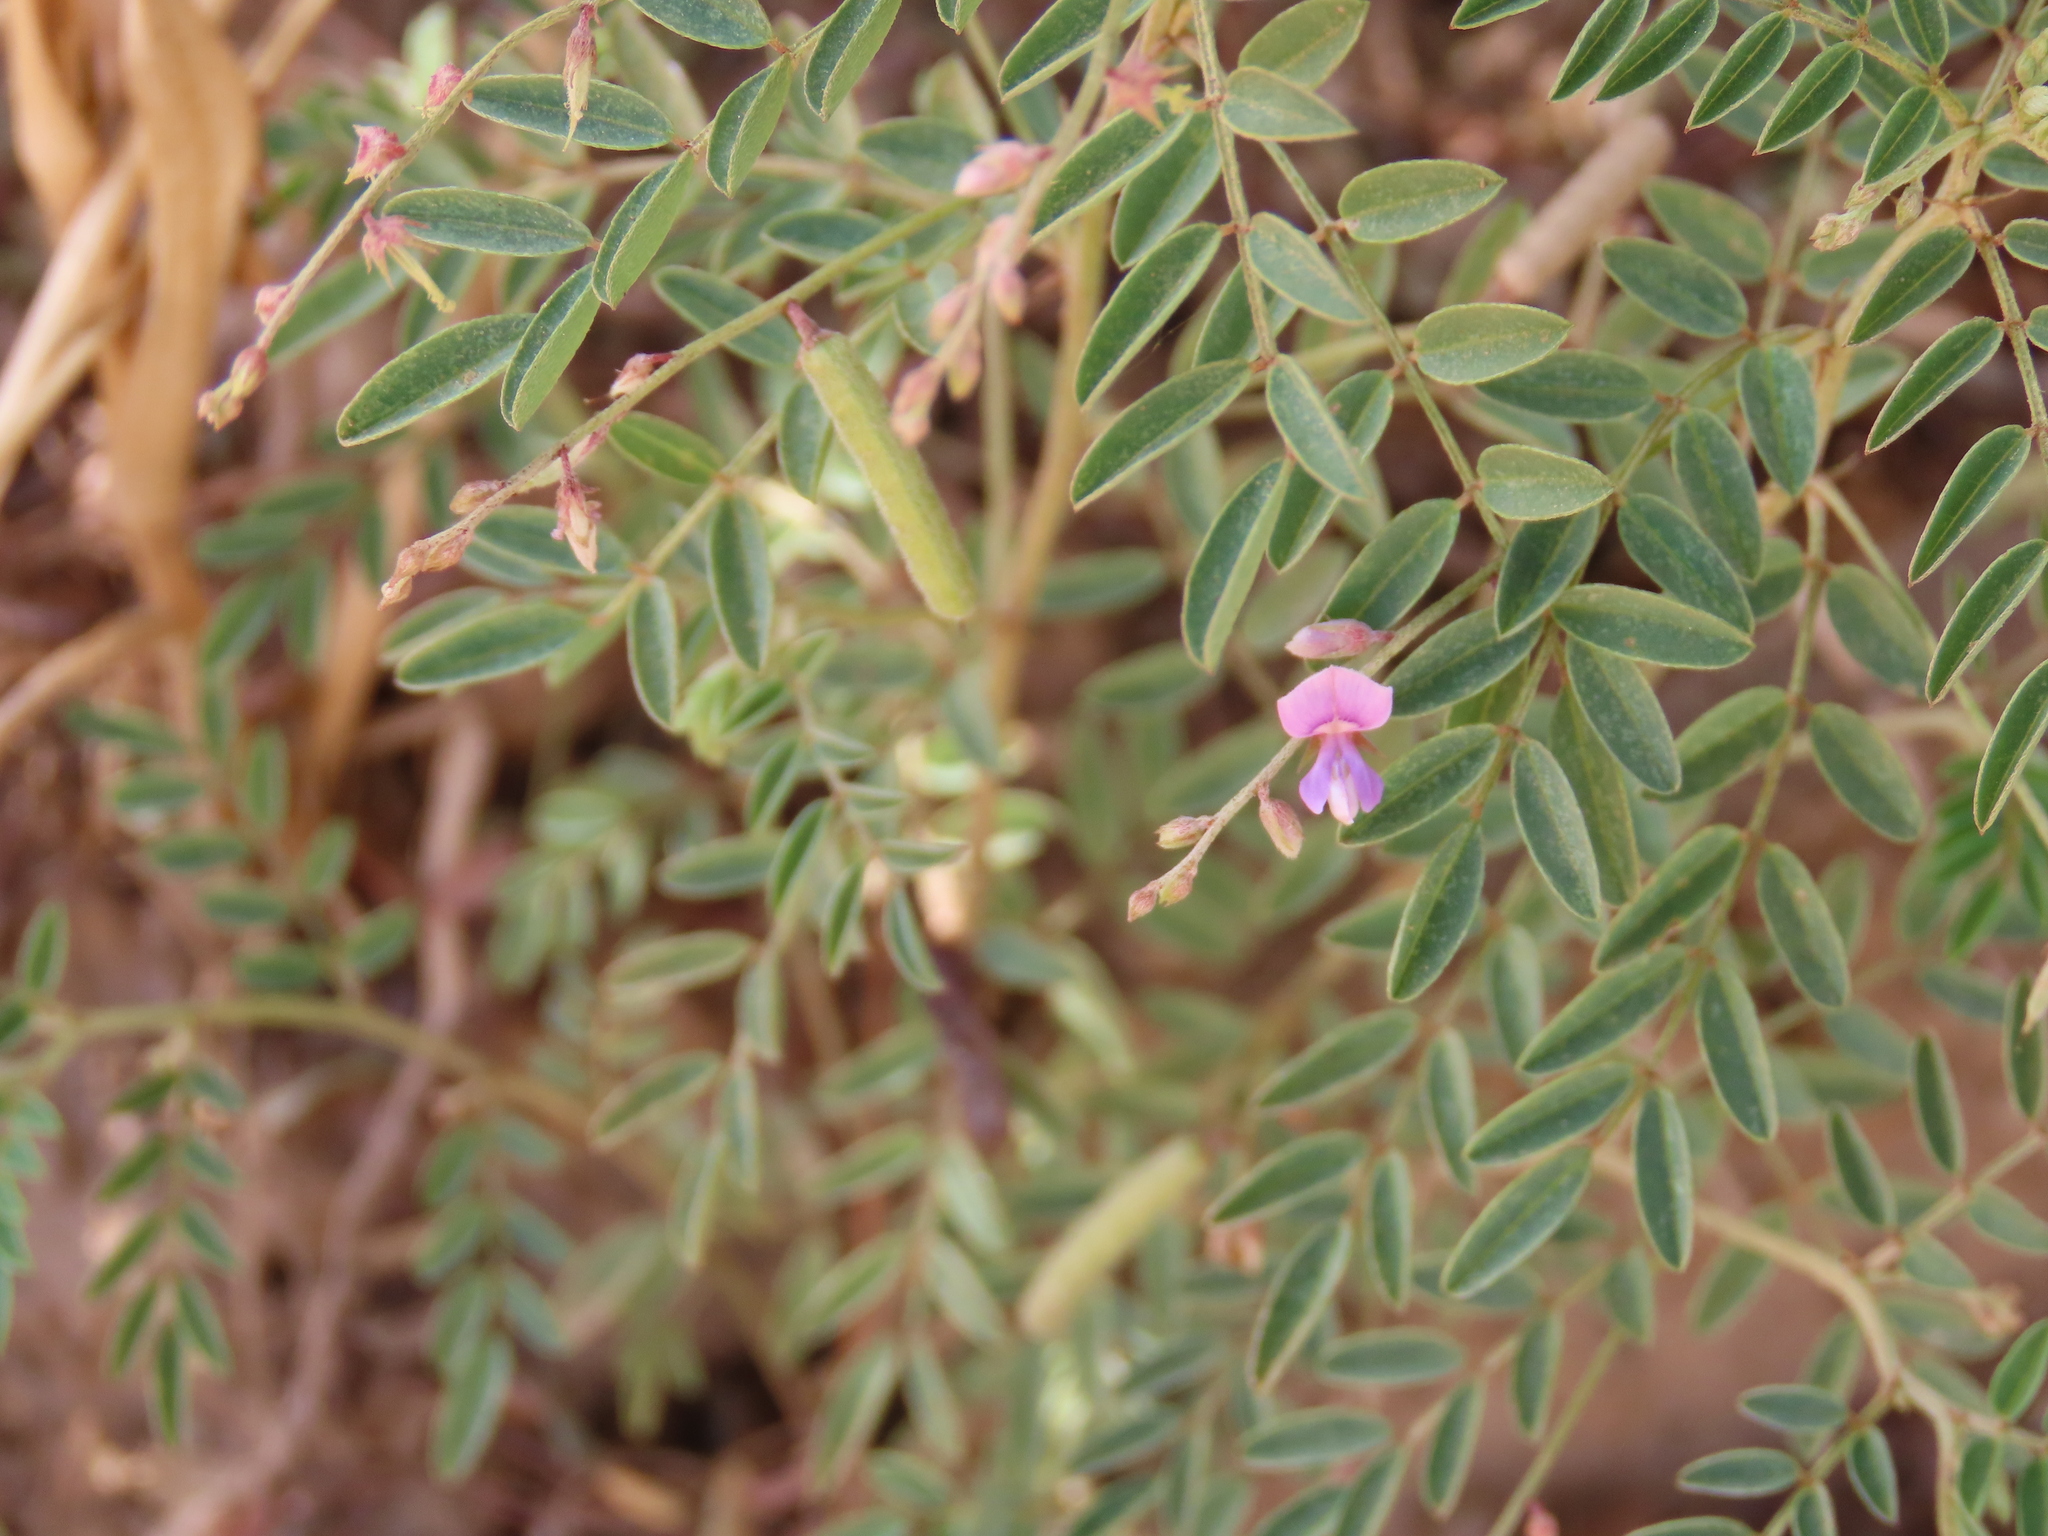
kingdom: Plantae
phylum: Tracheophyta
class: Magnoliopsida
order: Fabales
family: Fabaceae
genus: Indigofera
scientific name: Indigofera vicioides
